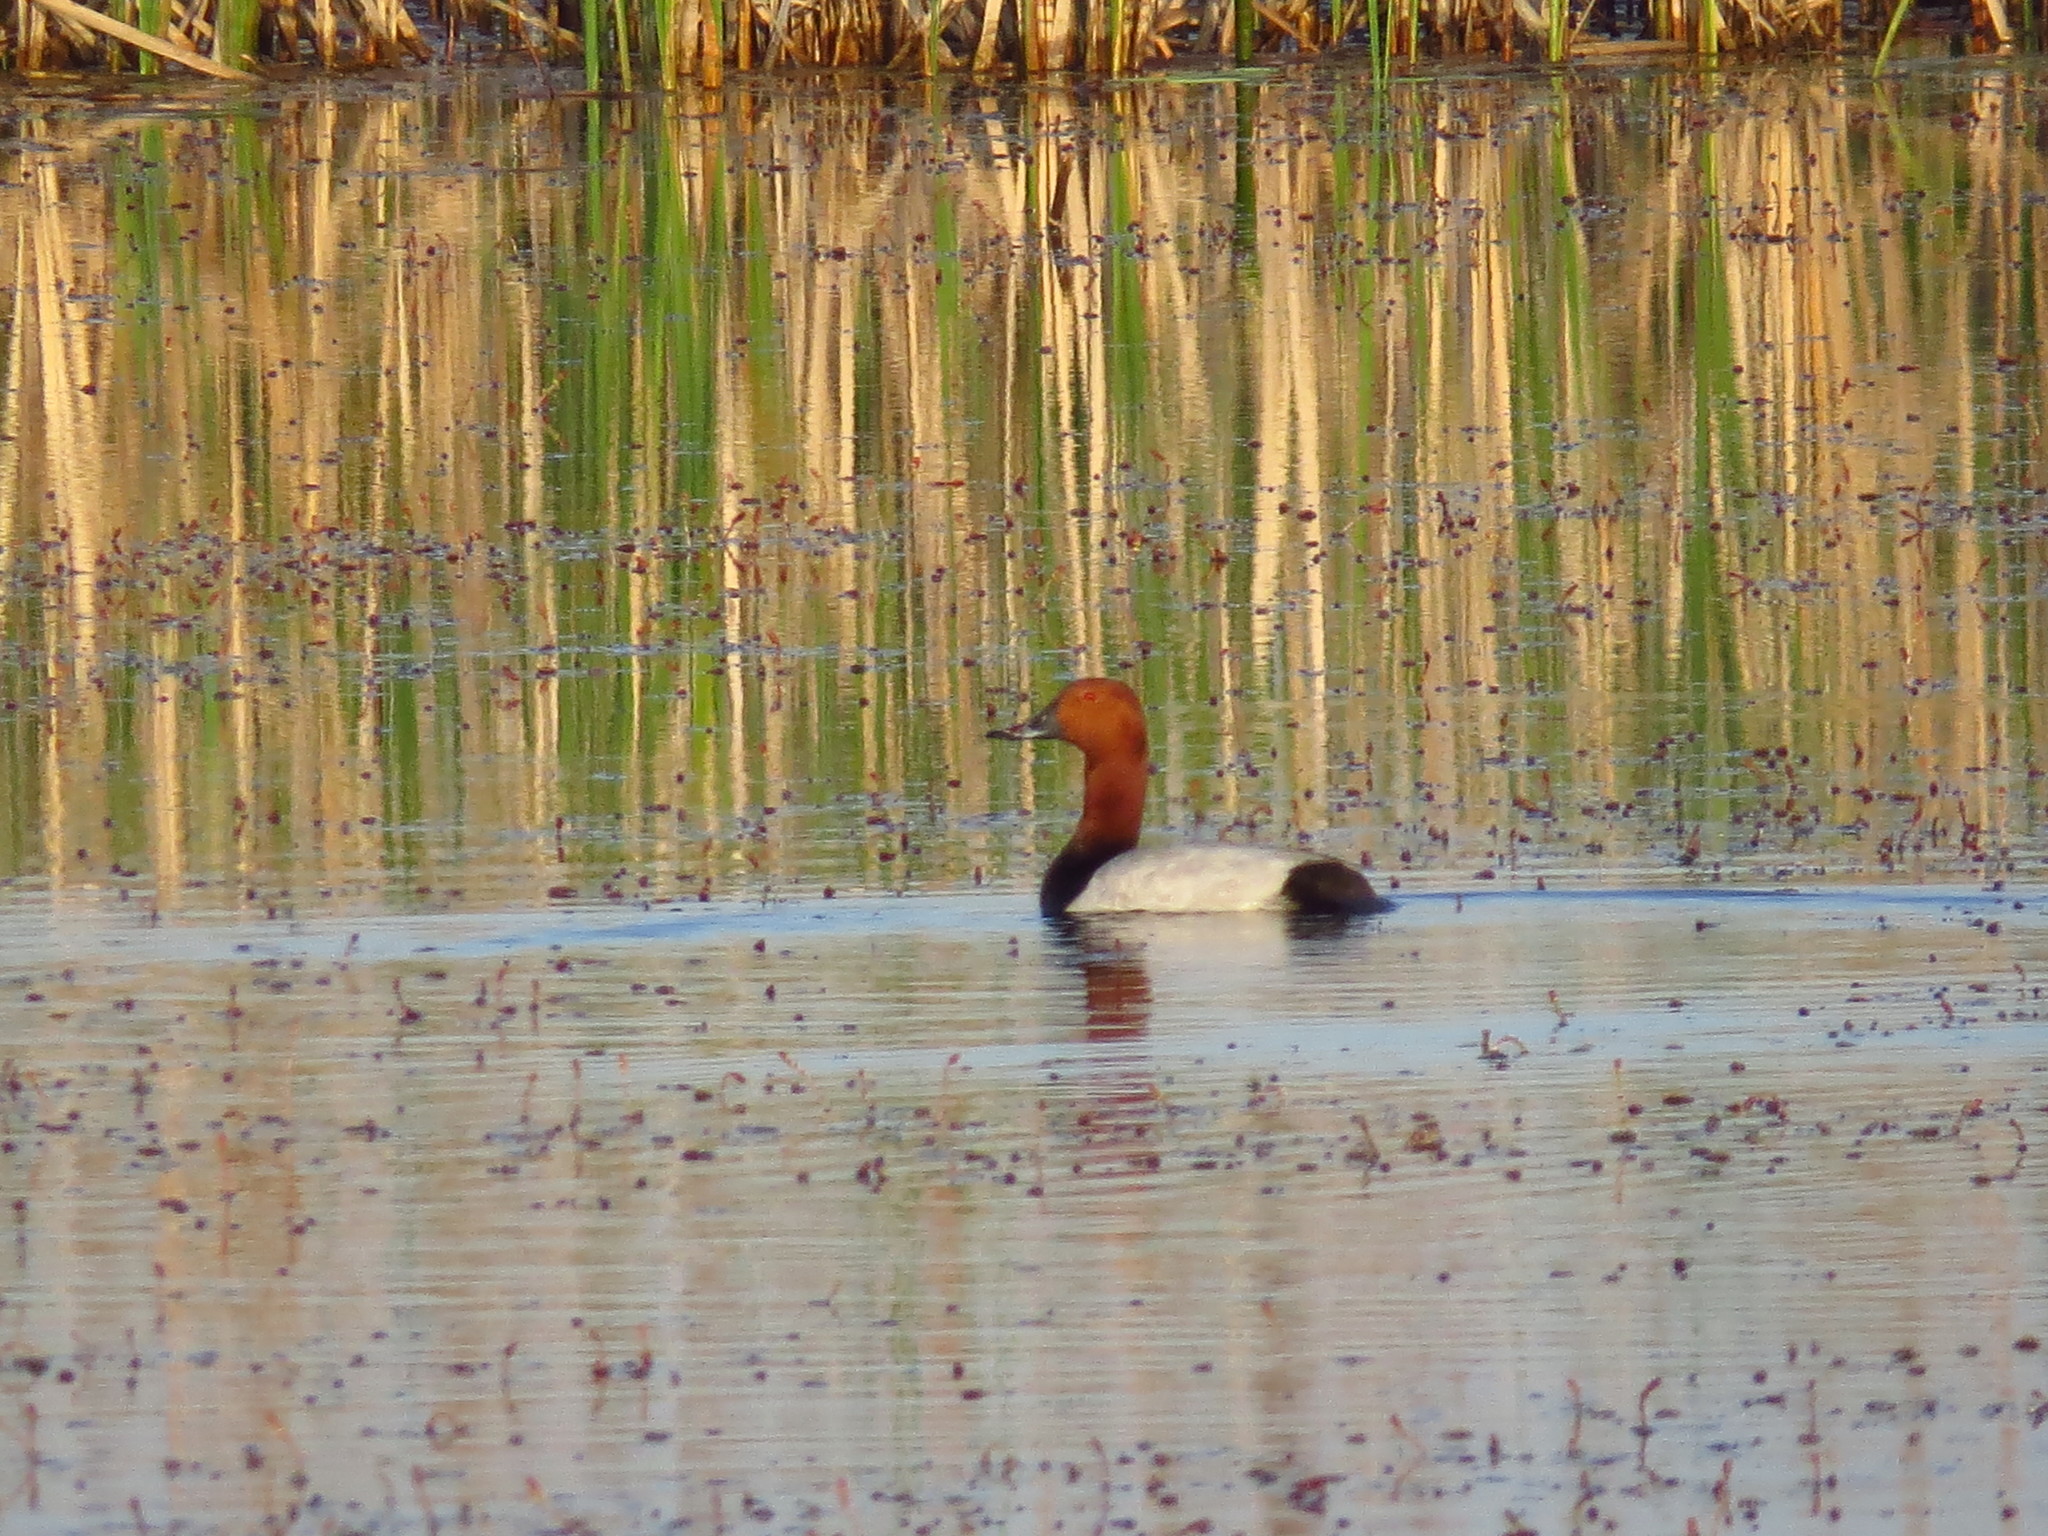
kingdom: Animalia
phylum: Chordata
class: Aves
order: Anseriformes
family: Anatidae
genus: Aythya
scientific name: Aythya ferina
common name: Common pochard
